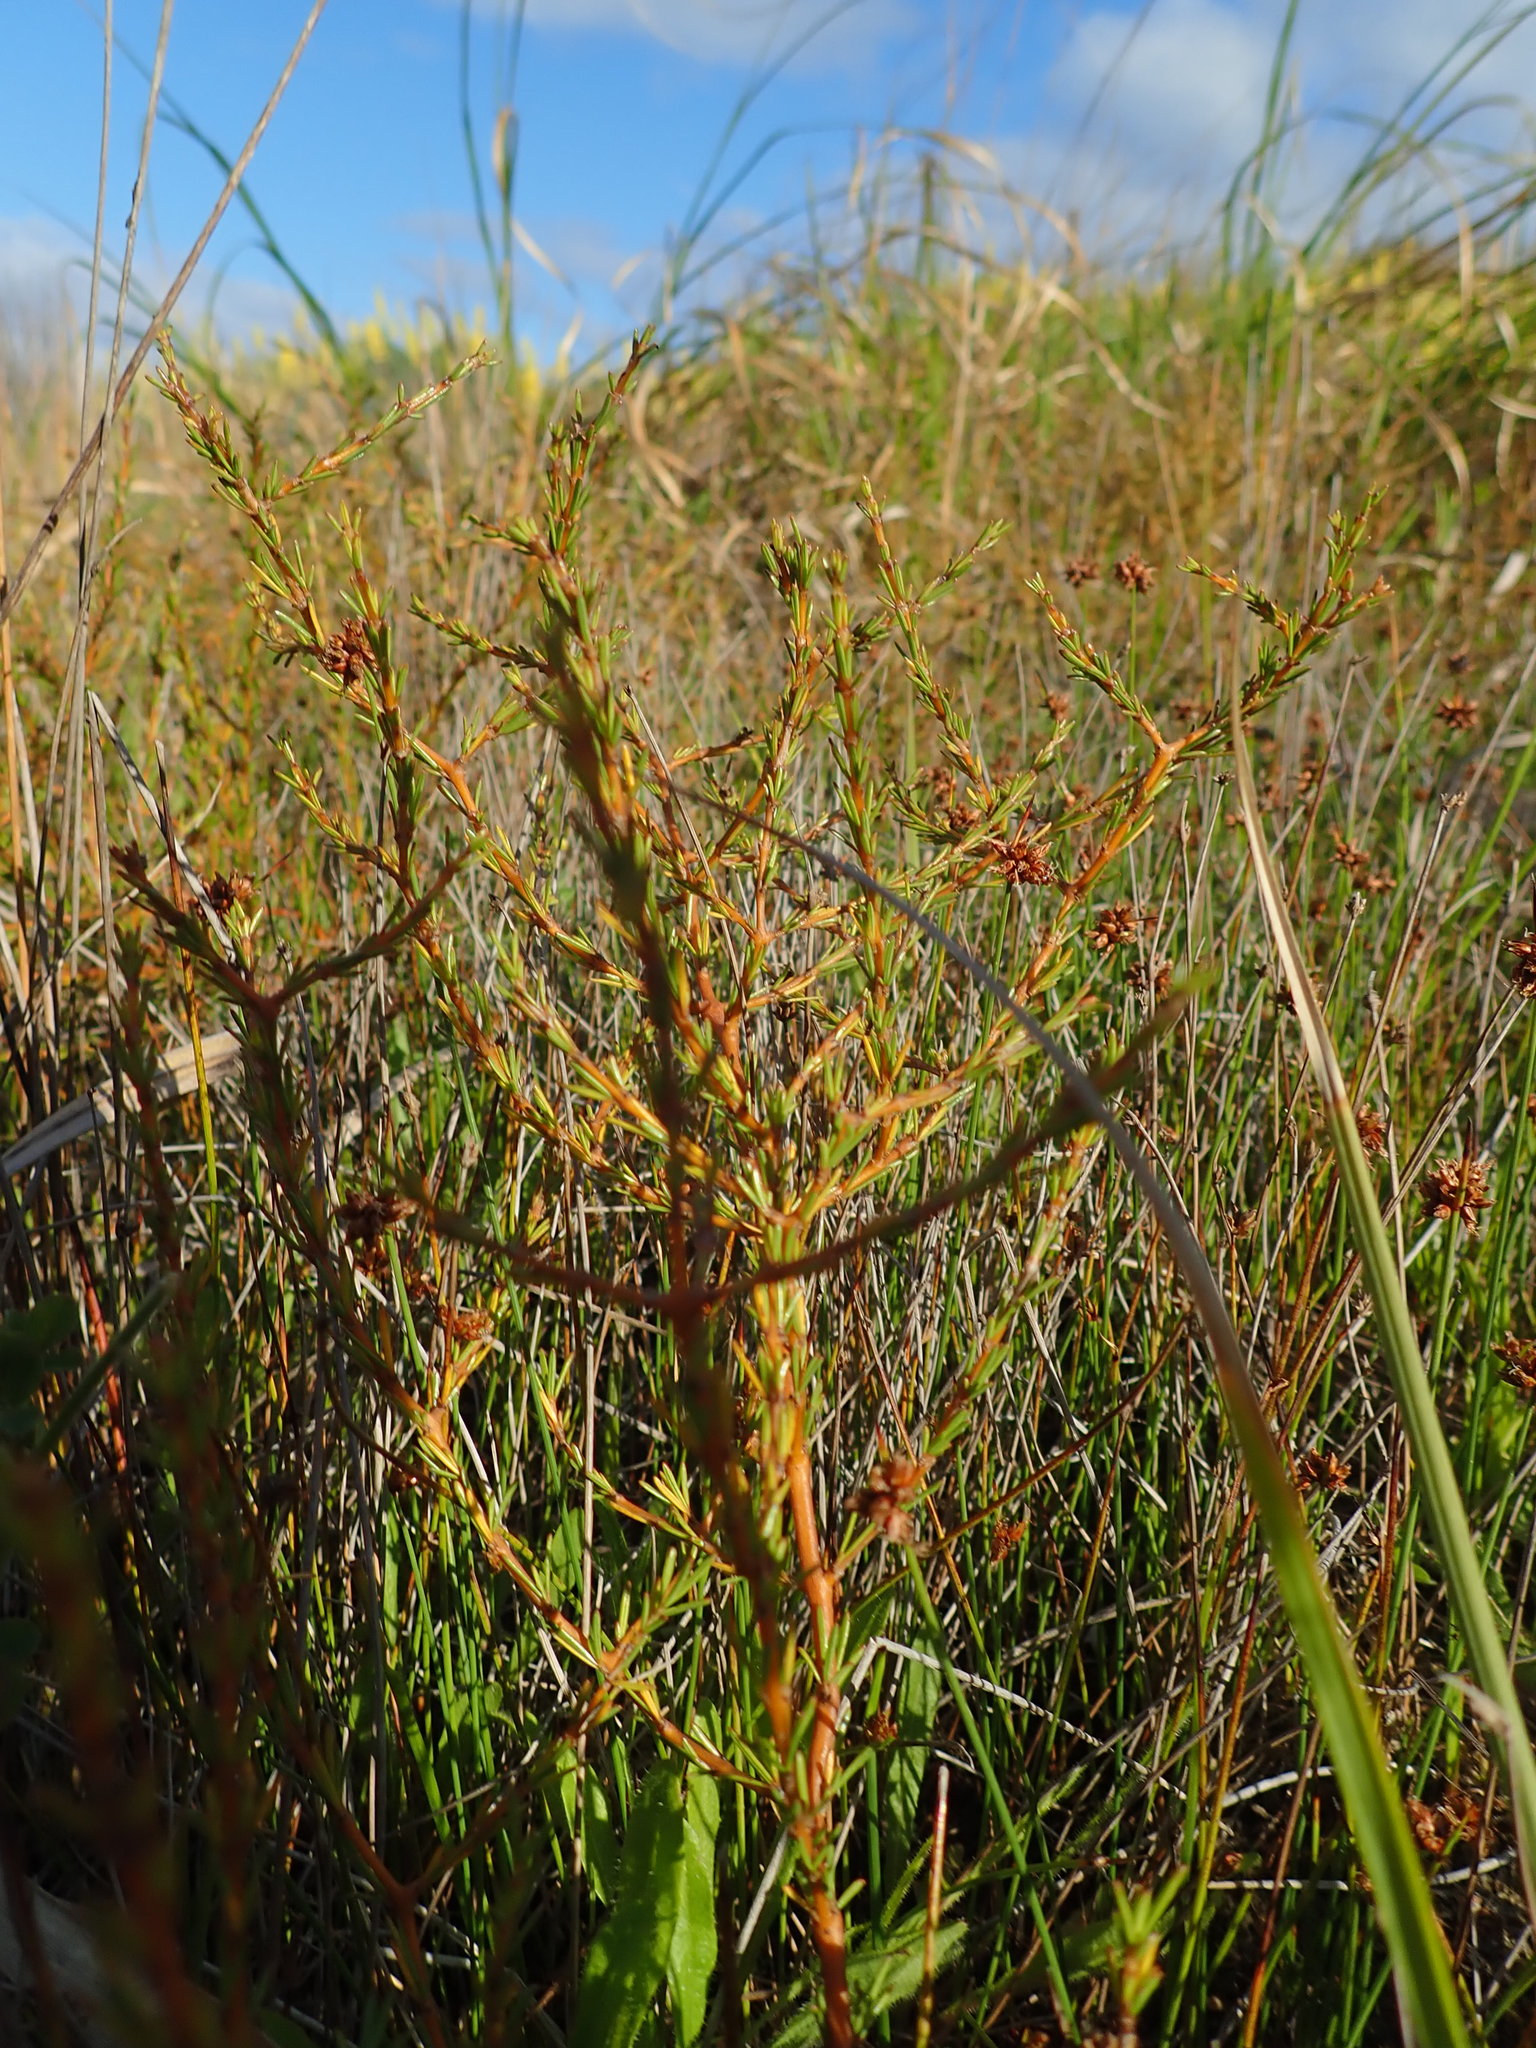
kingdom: Plantae
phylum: Tracheophyta
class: Magnoliopsida
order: Gentianales
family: Rubiaceae
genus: Coprosma
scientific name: Coprosma acerosa
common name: Sand coprosma
